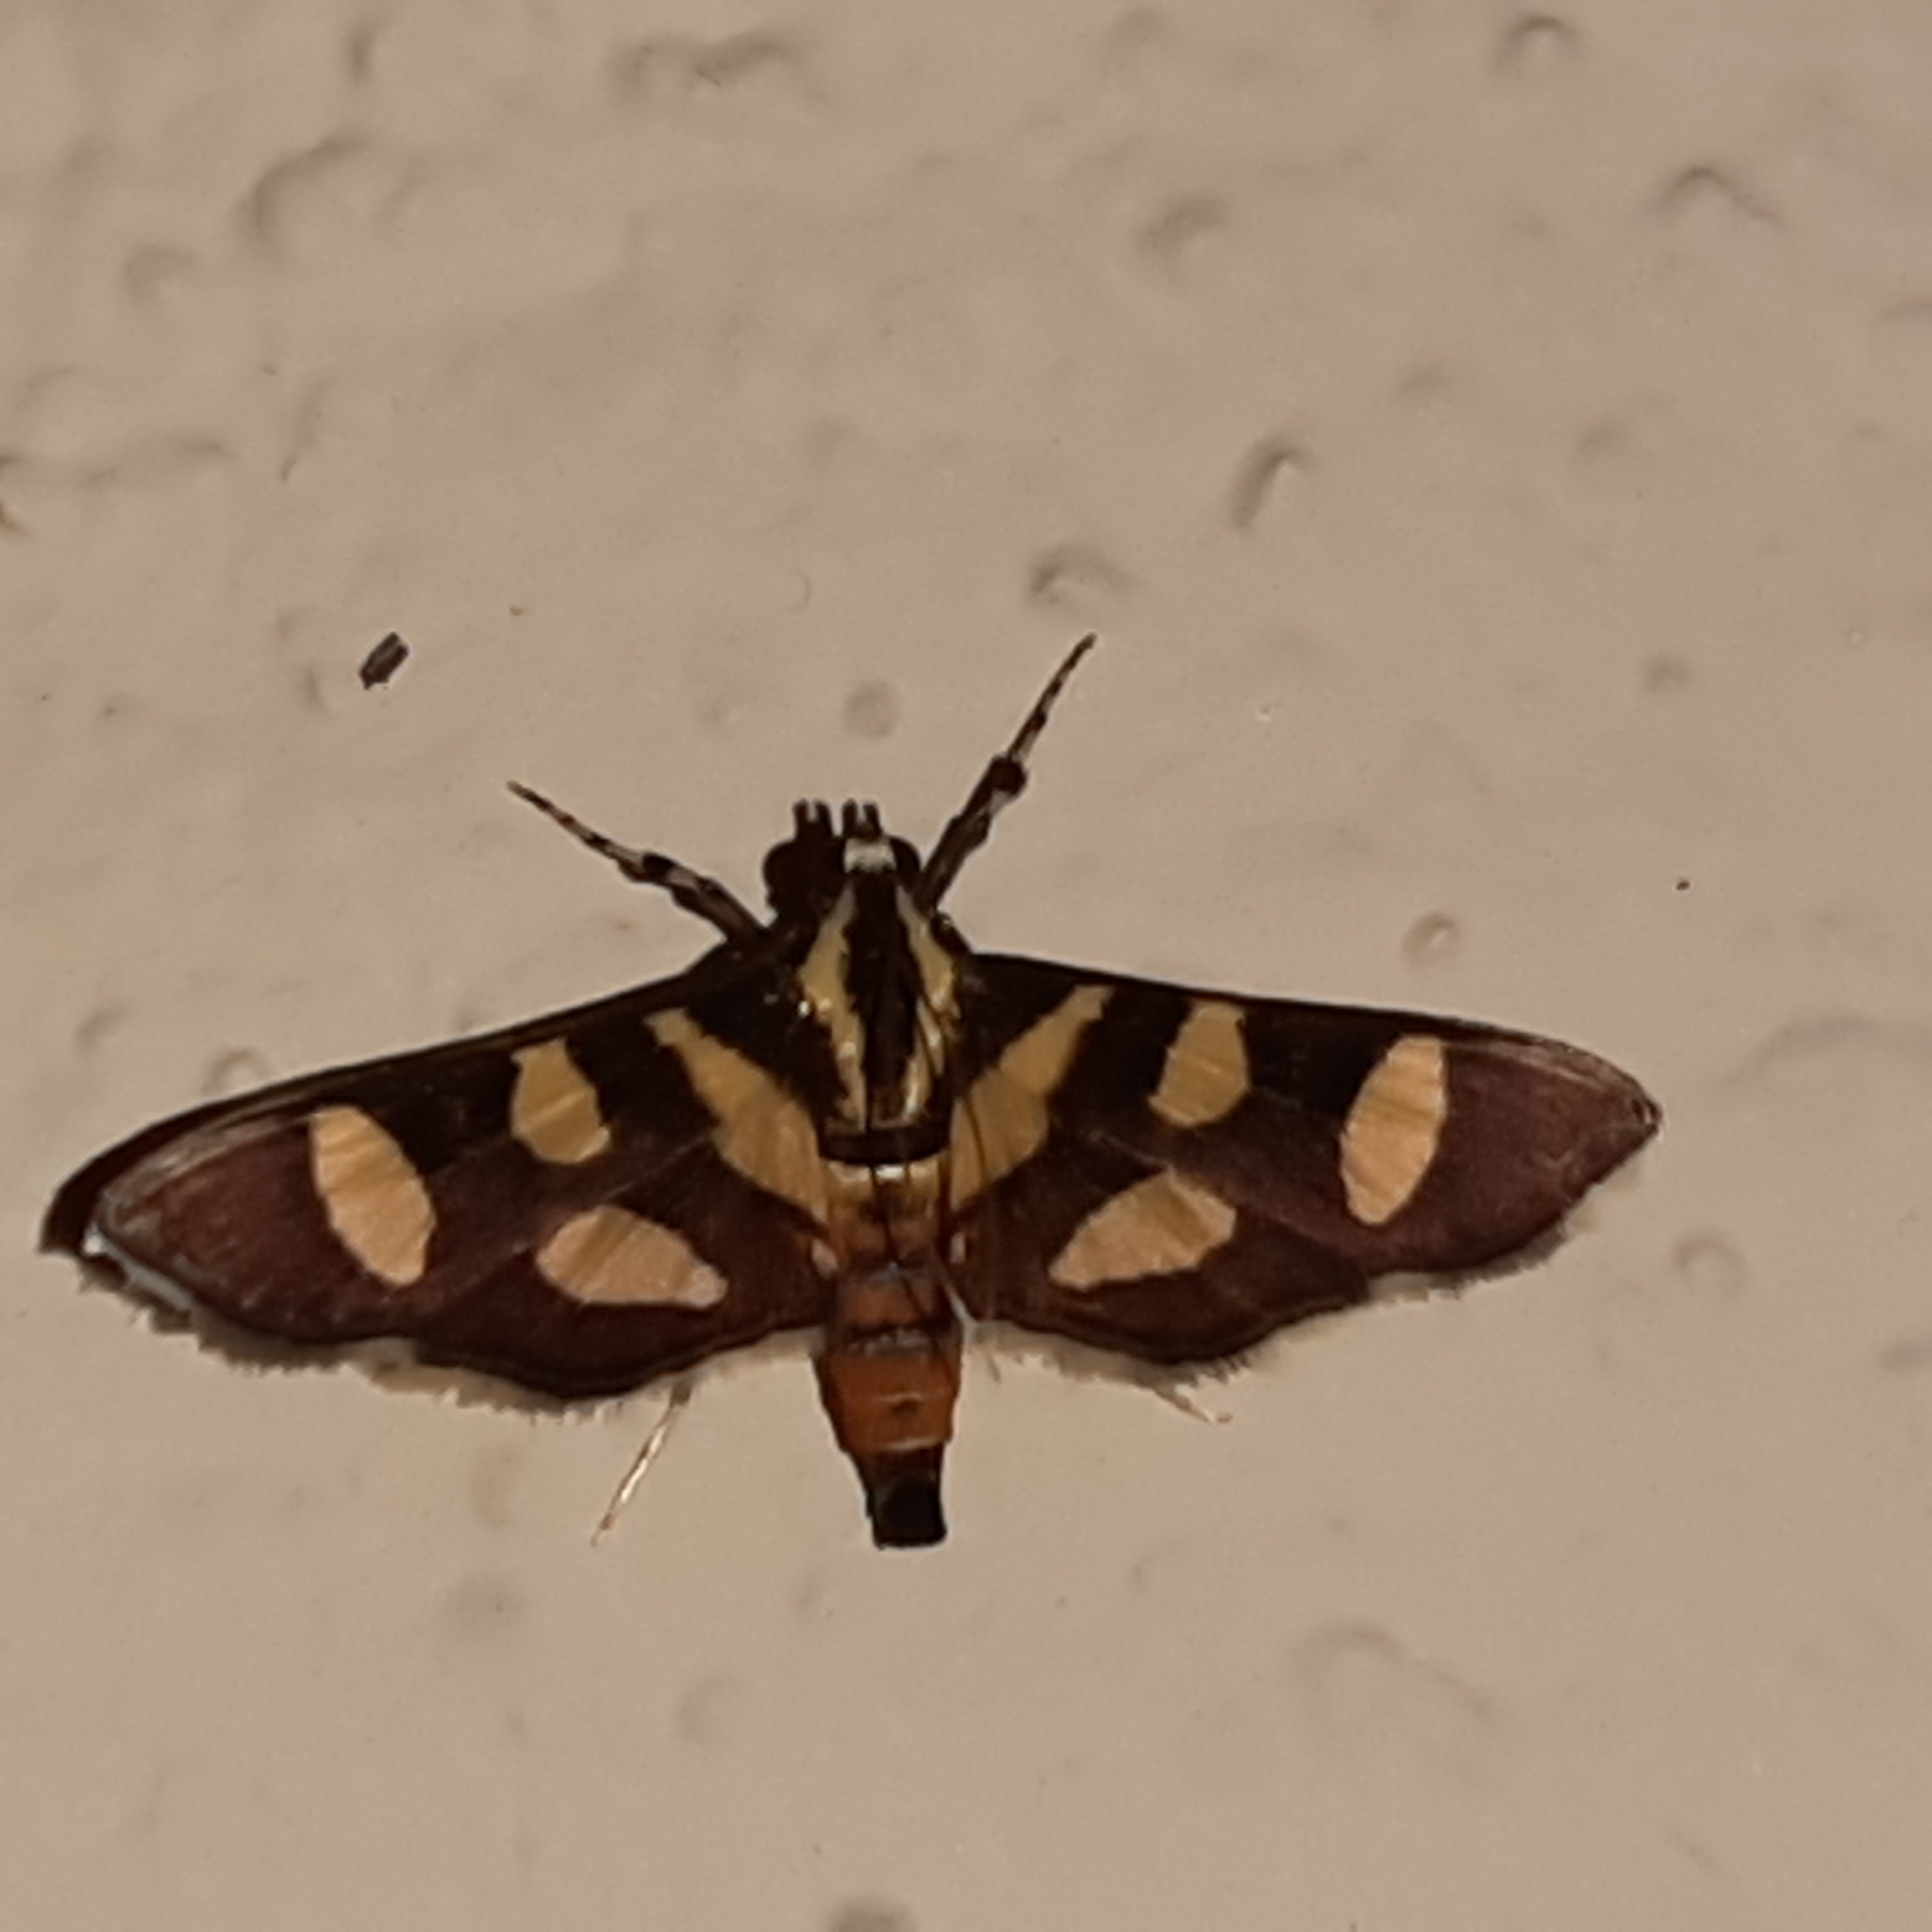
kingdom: Animalia
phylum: Arthropoda
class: Insecta
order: Lepidoptera
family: Crambidae
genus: Syngamia
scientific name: Syngamia florella
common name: Orange-spotted flower moth
